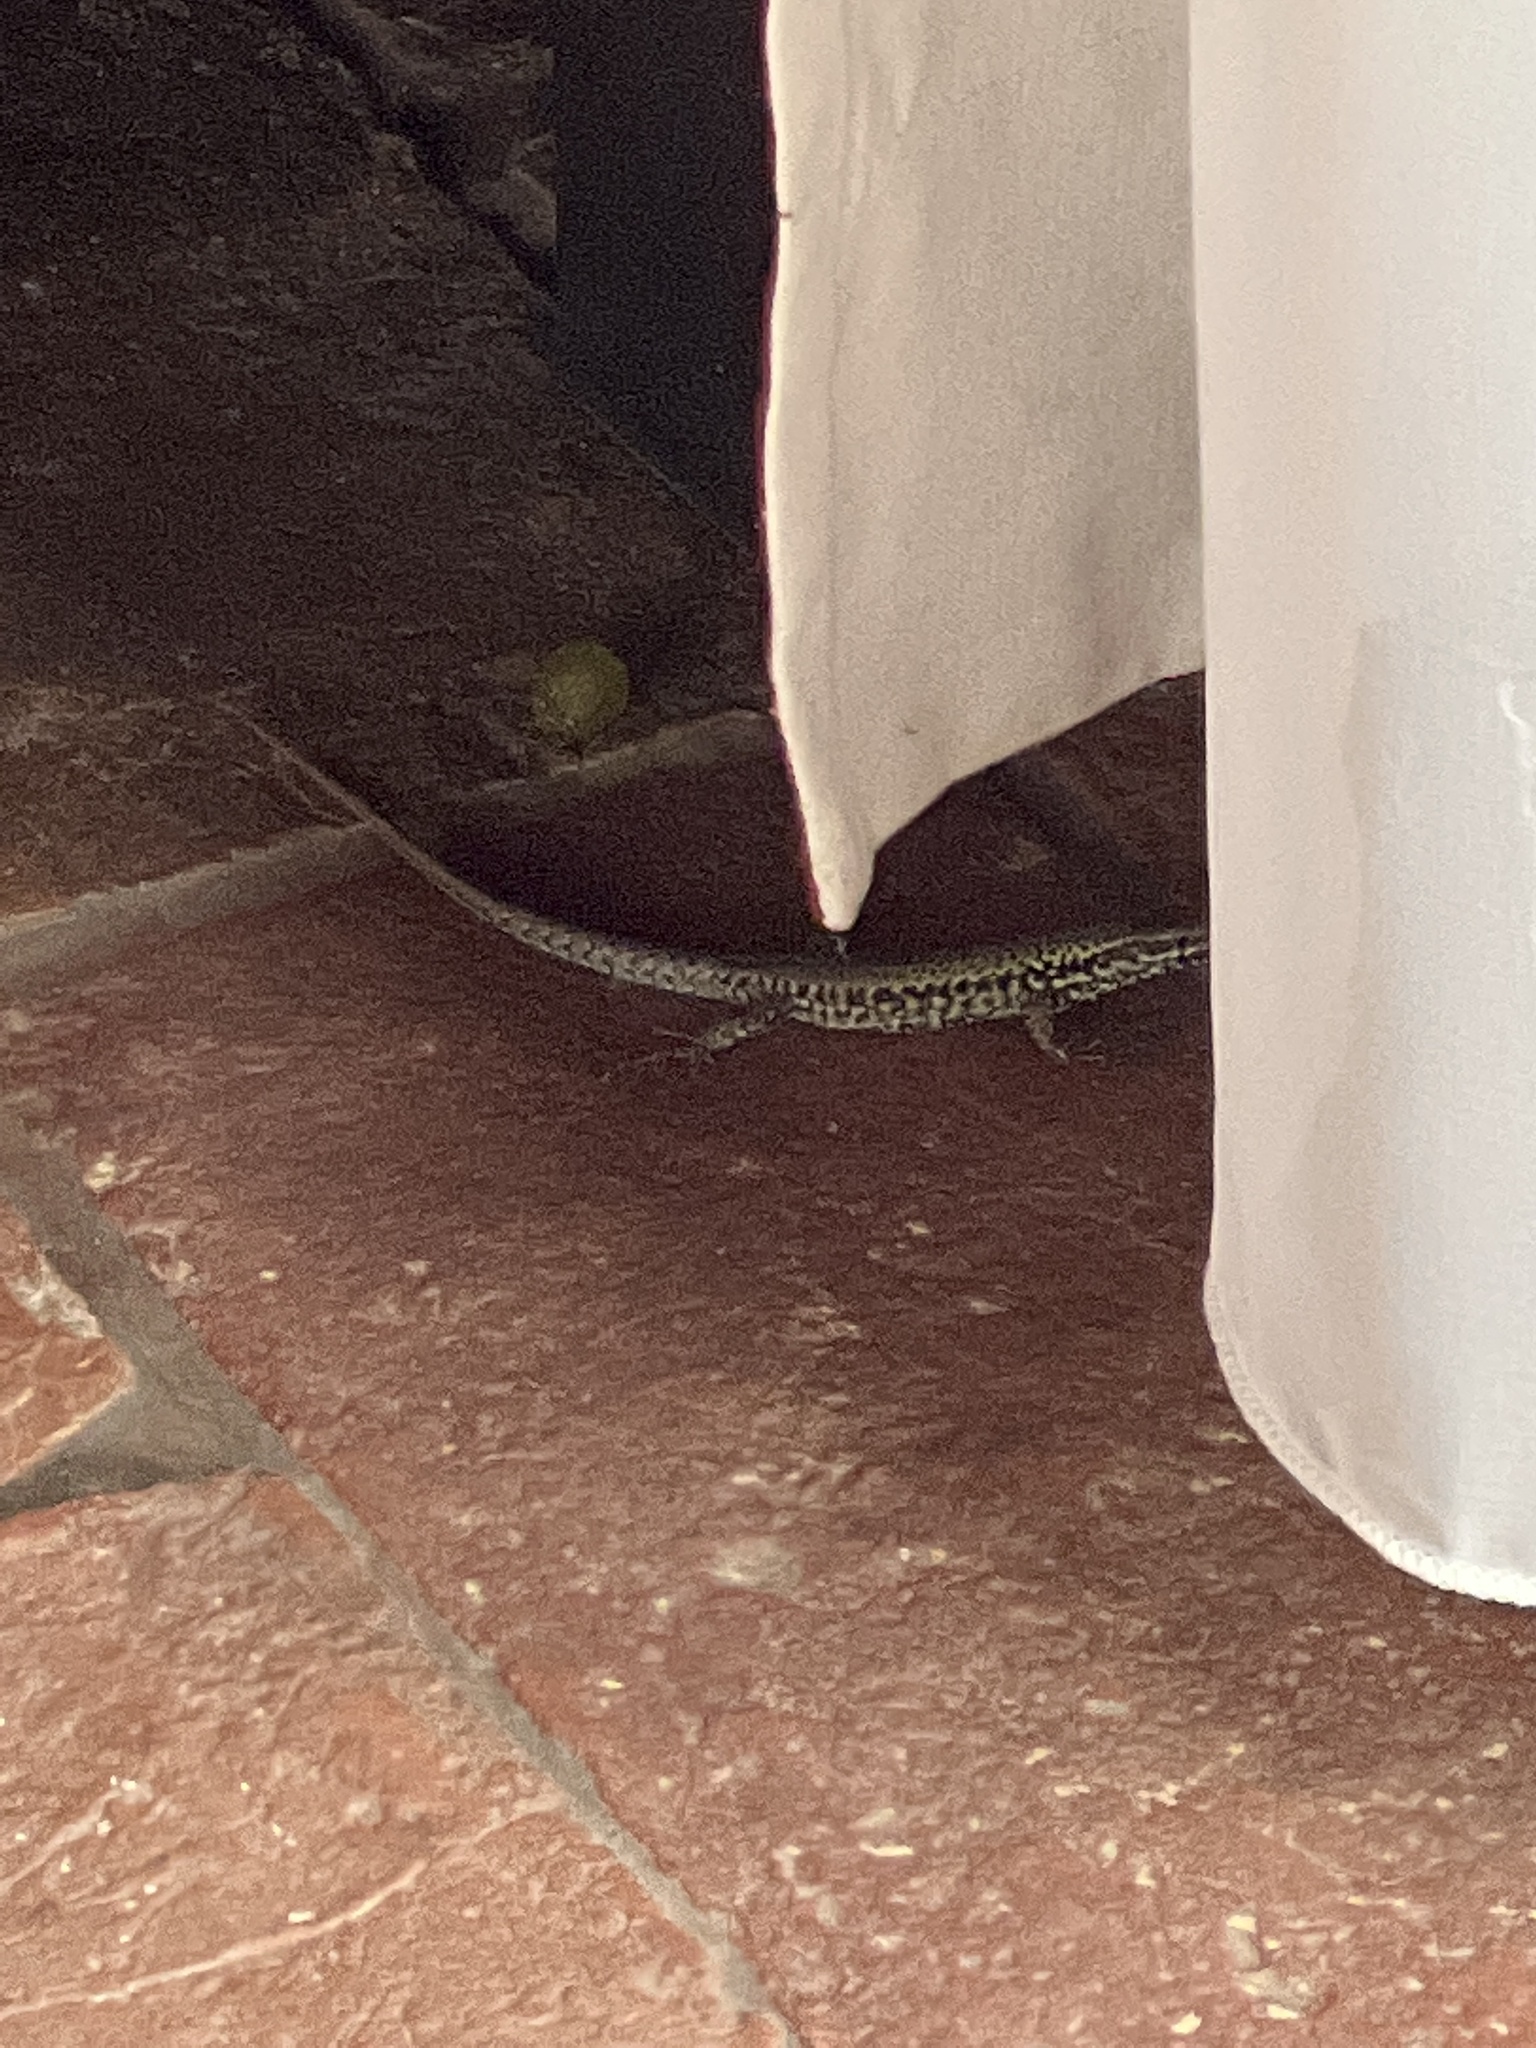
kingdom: Animalia
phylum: Chordata
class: Squamata
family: Lacertidae
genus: Podarcis
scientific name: Podarcis muralis
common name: Common wall lizard
